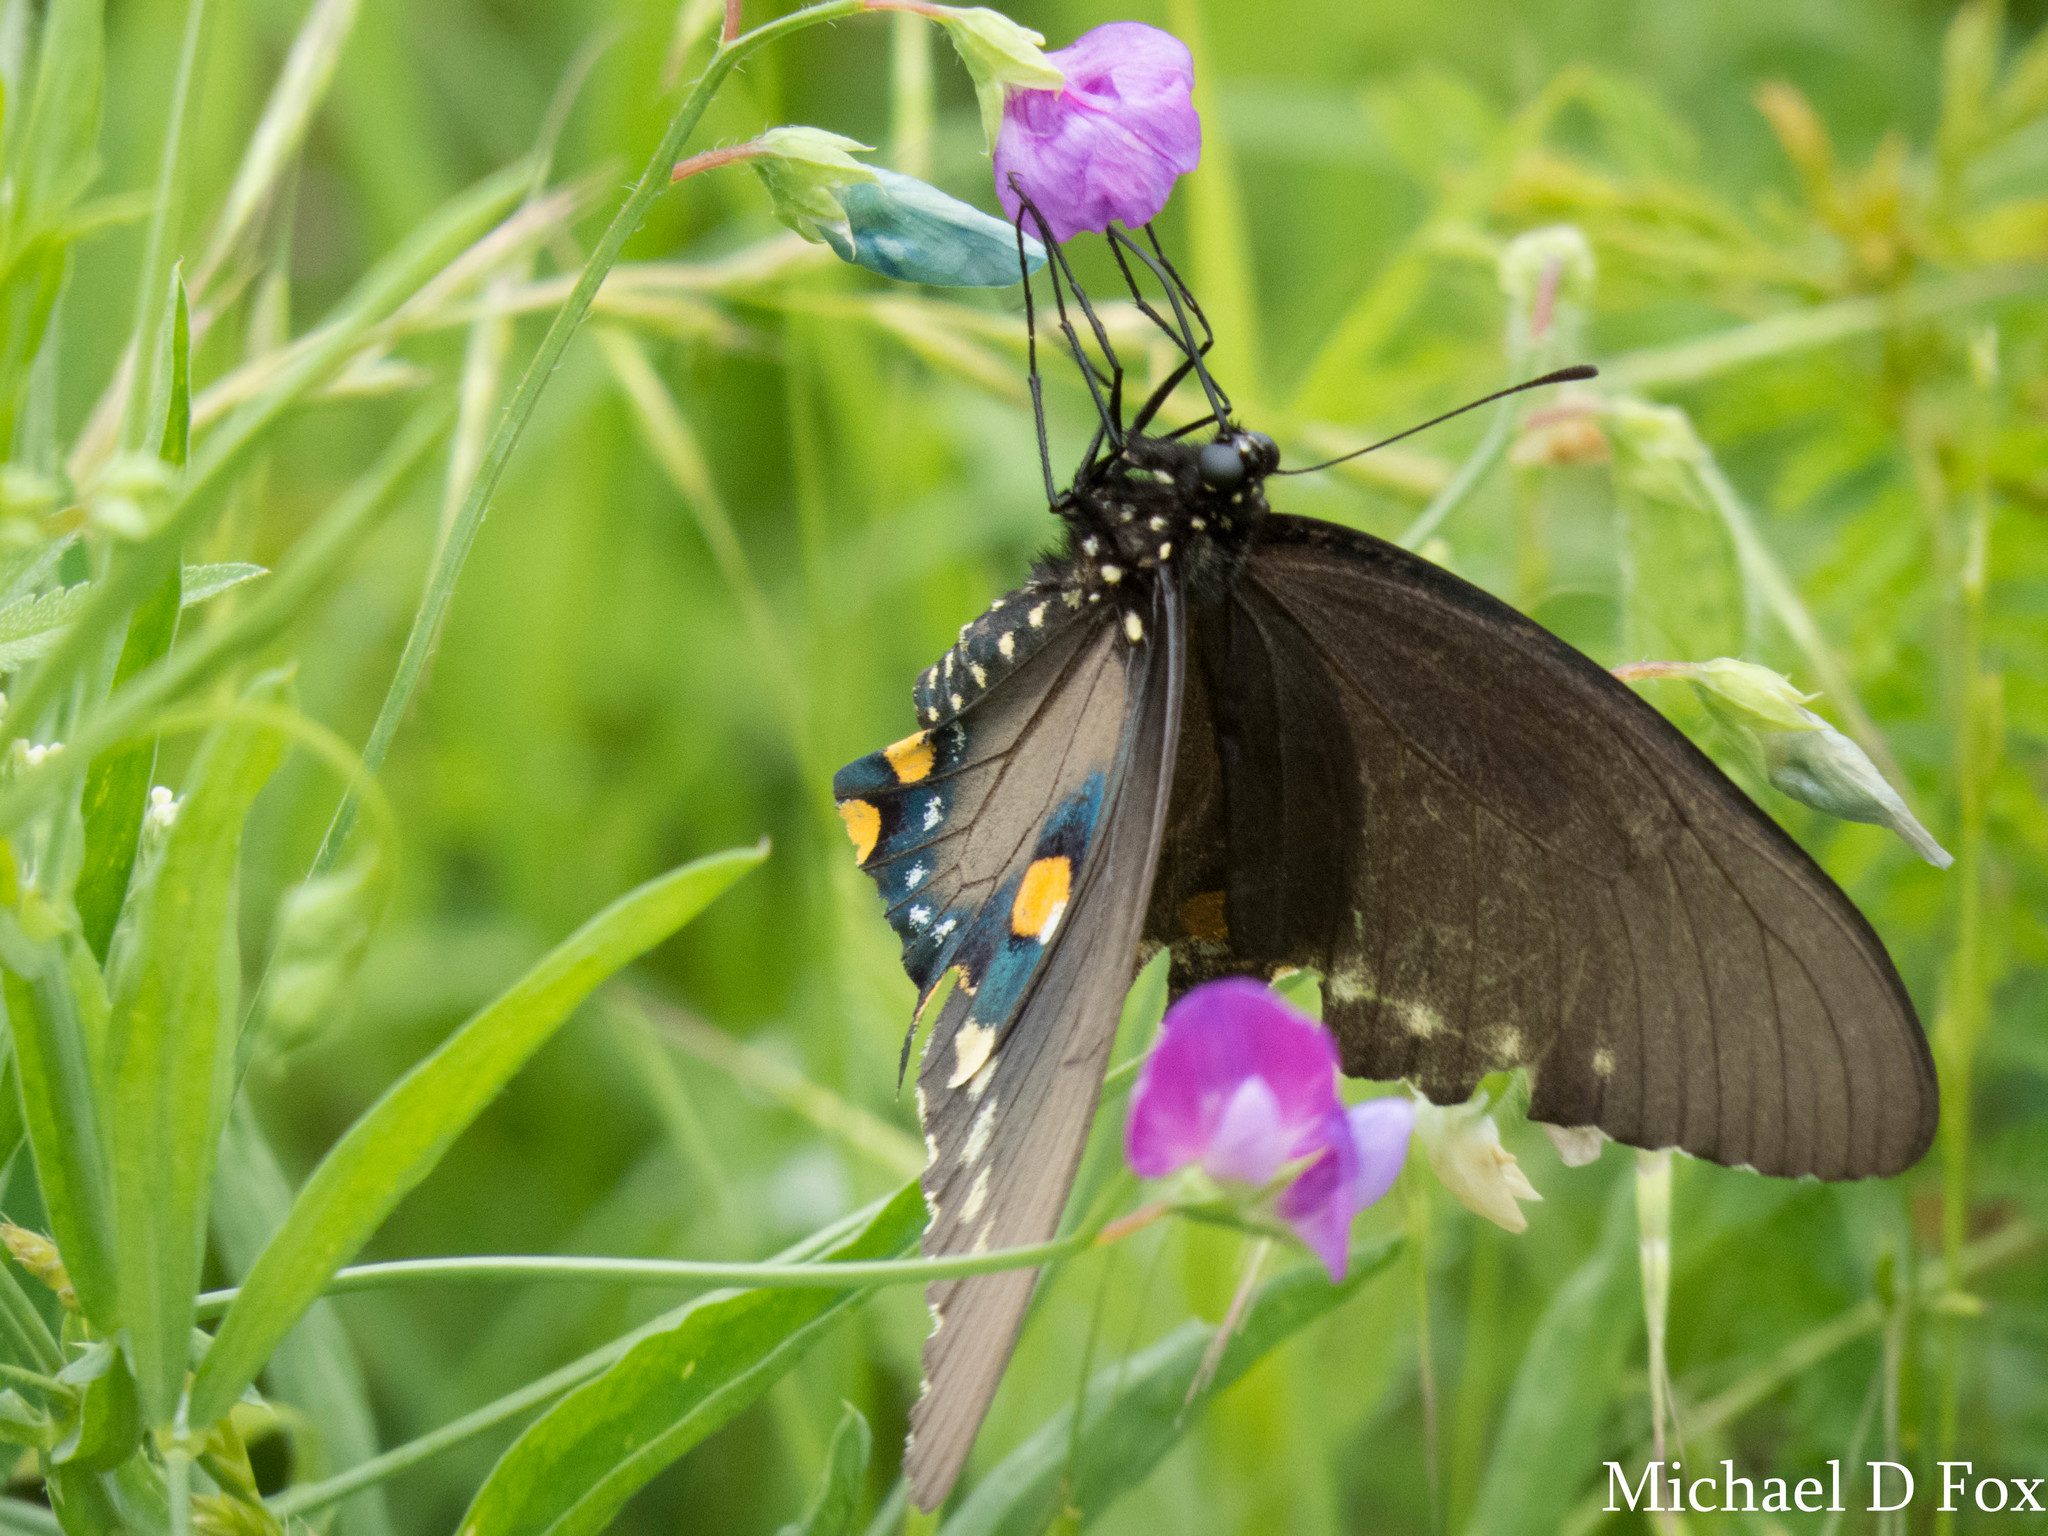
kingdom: Animalia
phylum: Arthropoda
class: Insecta
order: Lepidoptera
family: Papilionidae
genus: Battus
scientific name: Battus philenor
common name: Pipevine swallowtail
